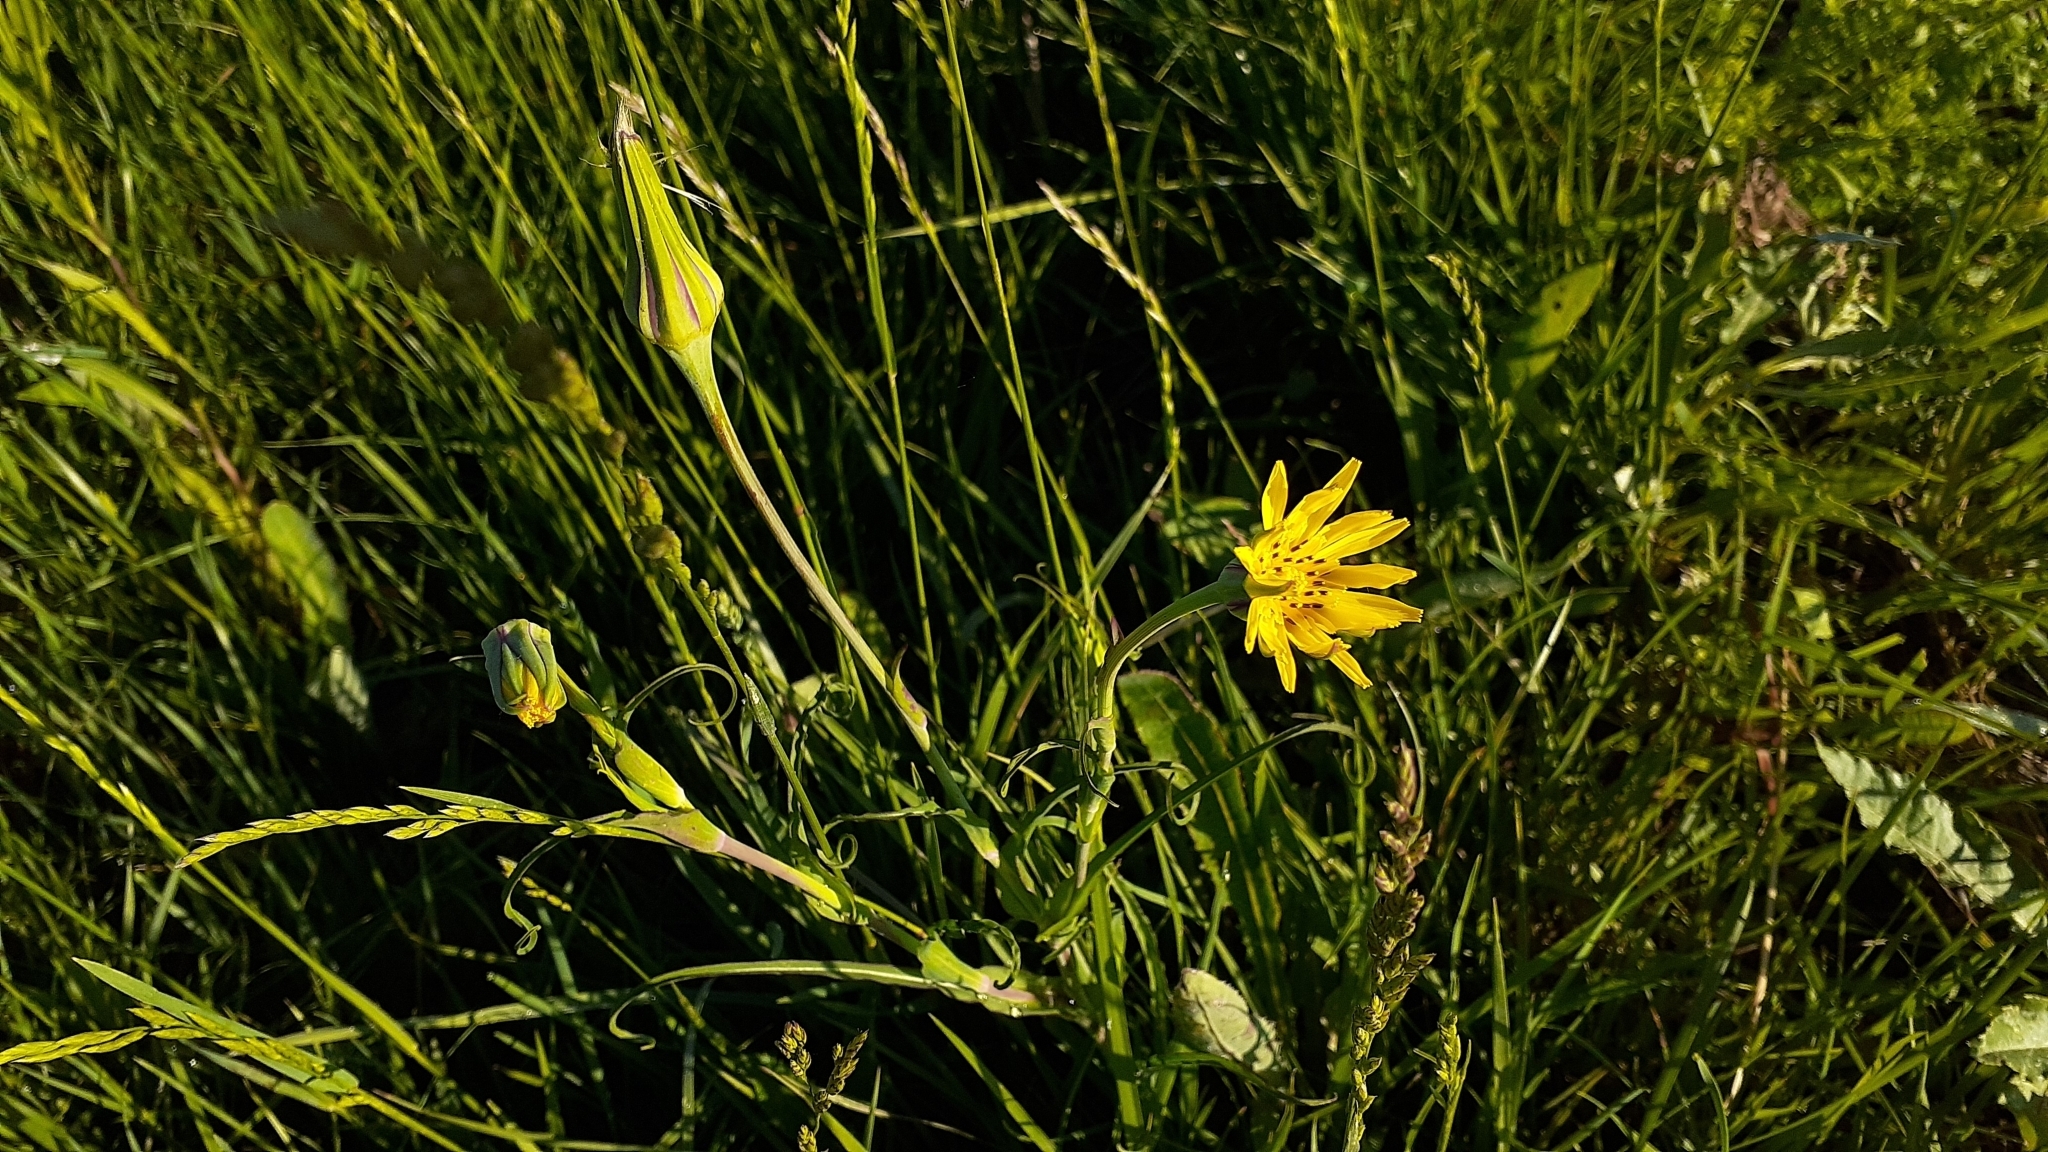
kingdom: Plantae
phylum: Tracheophyta
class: Magnoliopsida
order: Asterales
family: Asteraceae
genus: Tragopogon
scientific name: Tragopogon pratensis
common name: Goat's-beard
